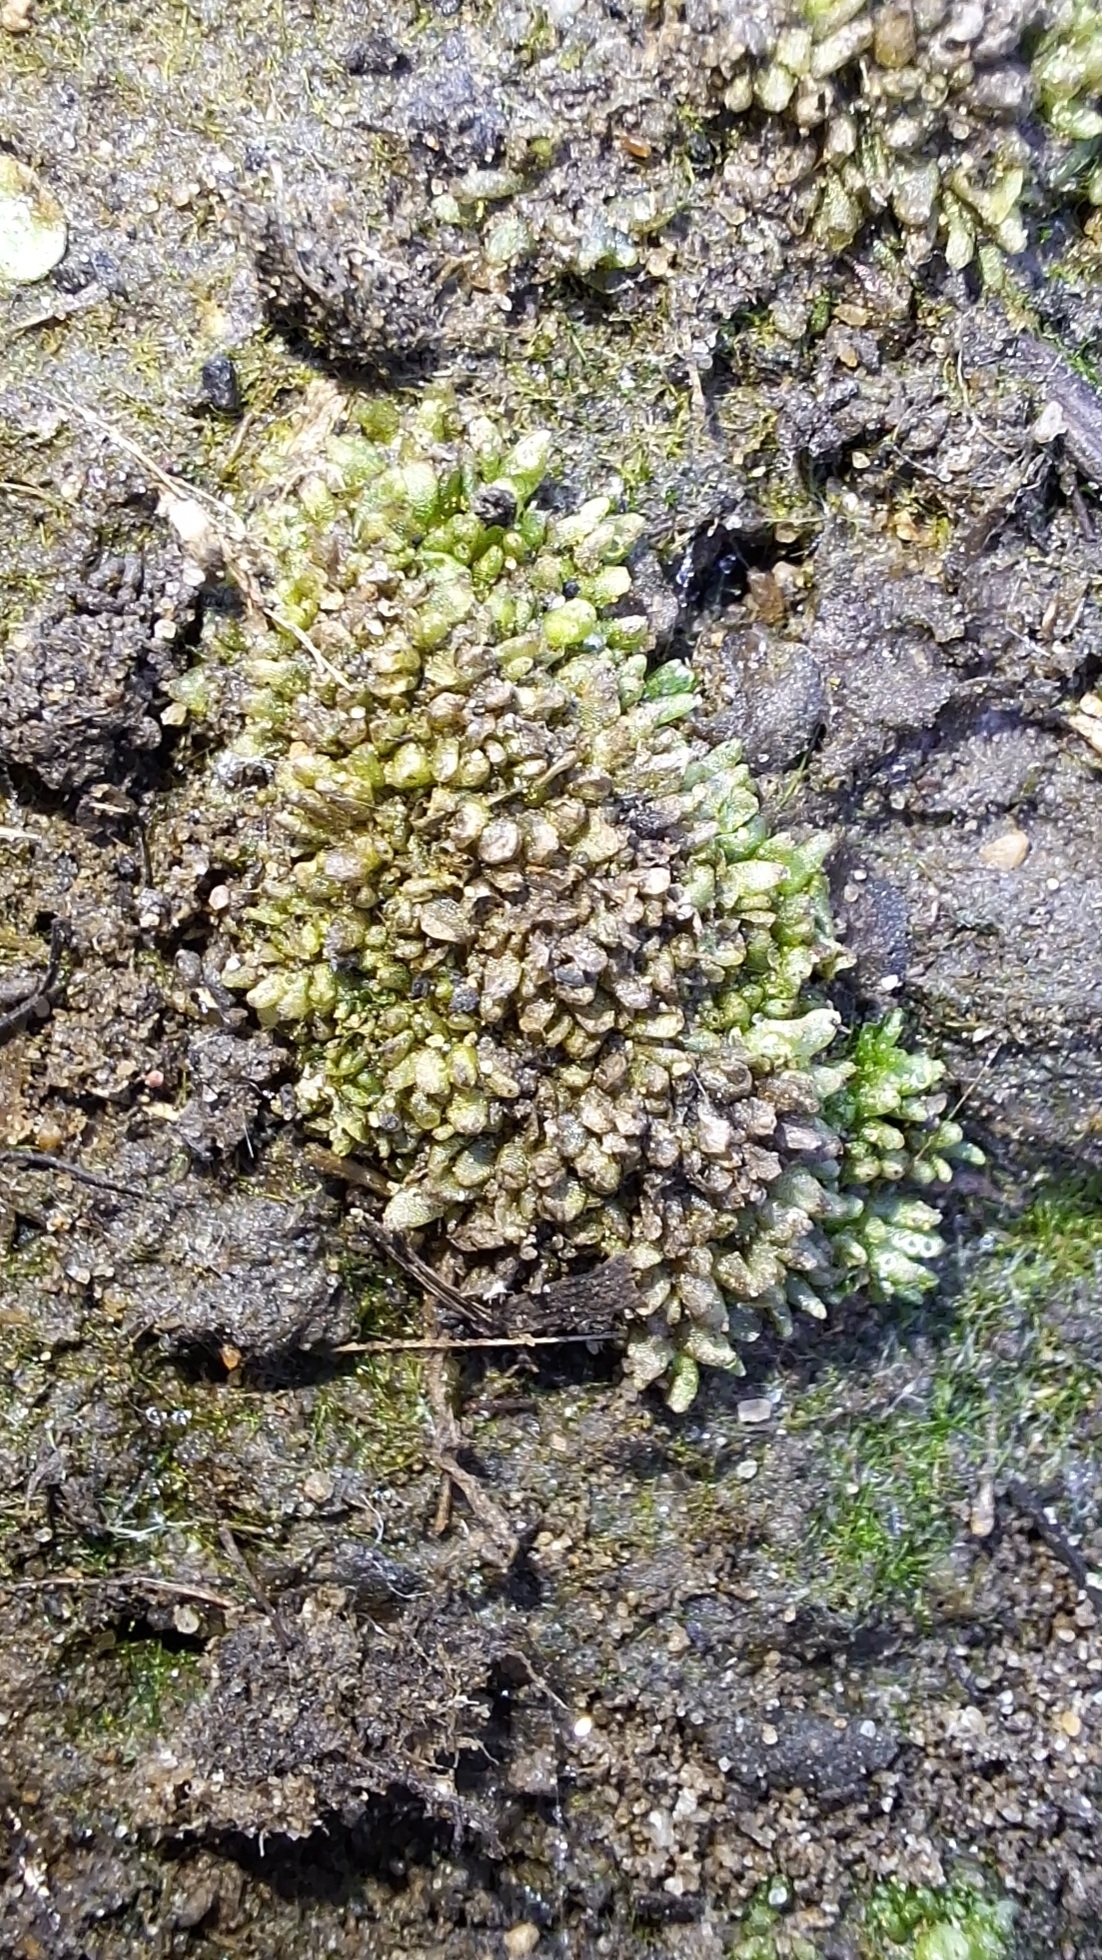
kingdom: Plantae
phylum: Marchantiophyta
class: Marchantiopsida
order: Sphaerocarpales
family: Sphaerocarpaceae
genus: Sphaerocarpos
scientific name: Sphaerocarpos texanus
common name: Texas balloonwort
